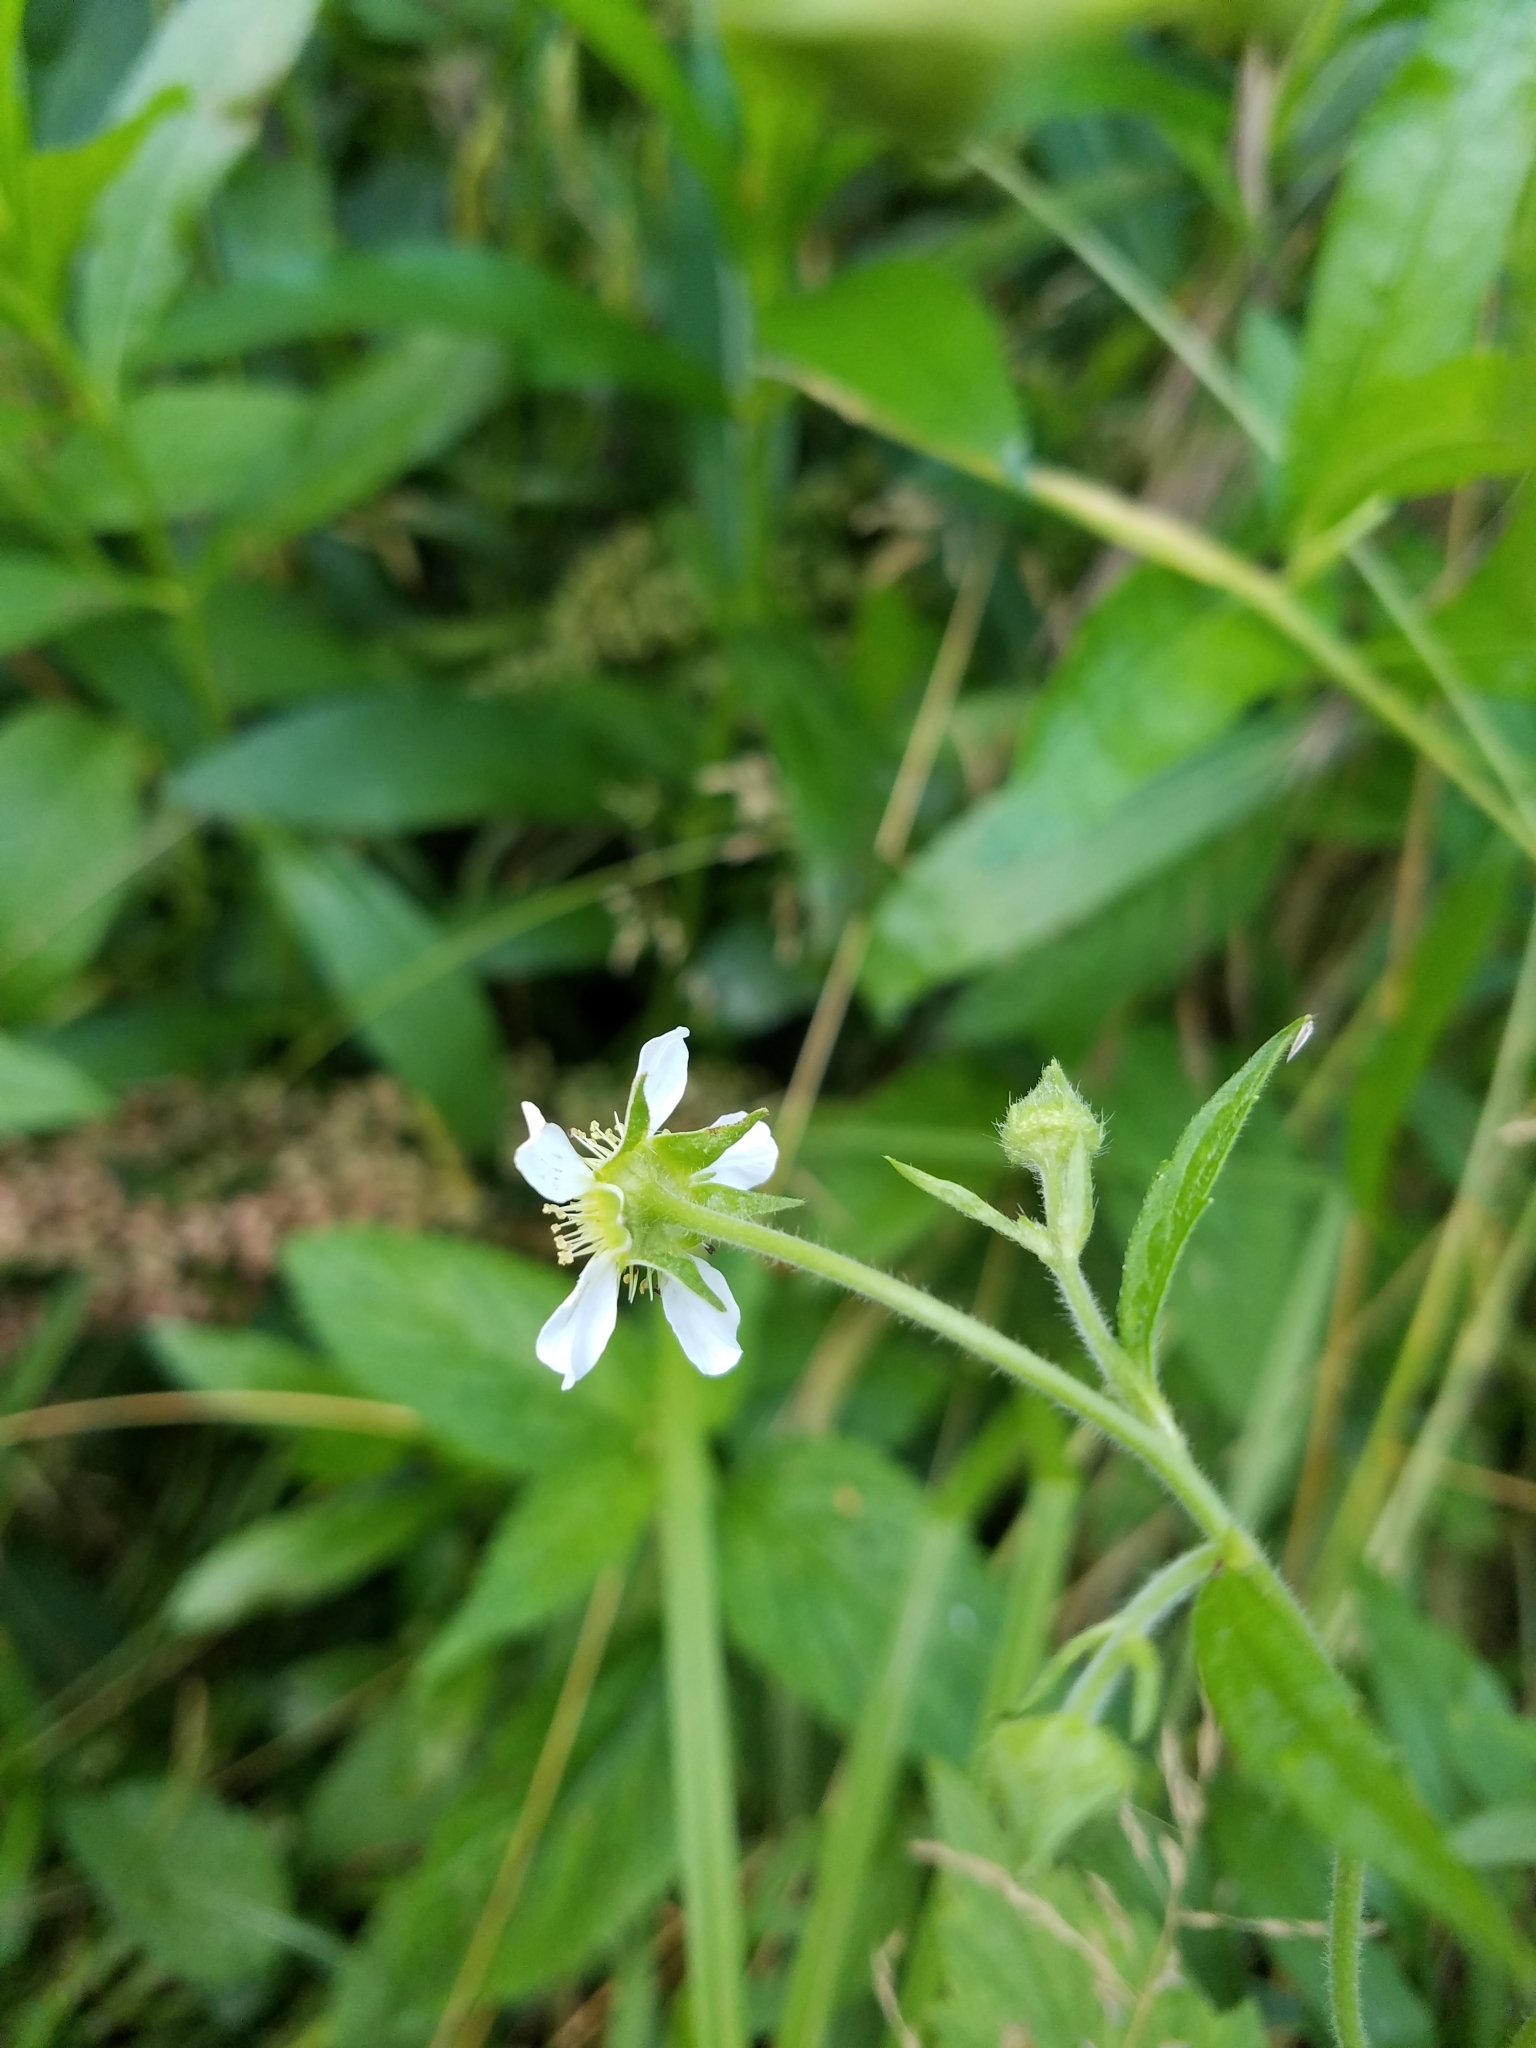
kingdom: Plantae
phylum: Tracheophyta
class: Magnoliopsida
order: Rosales
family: Rosaceae
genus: Geum
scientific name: Geum canadense
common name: White avens
